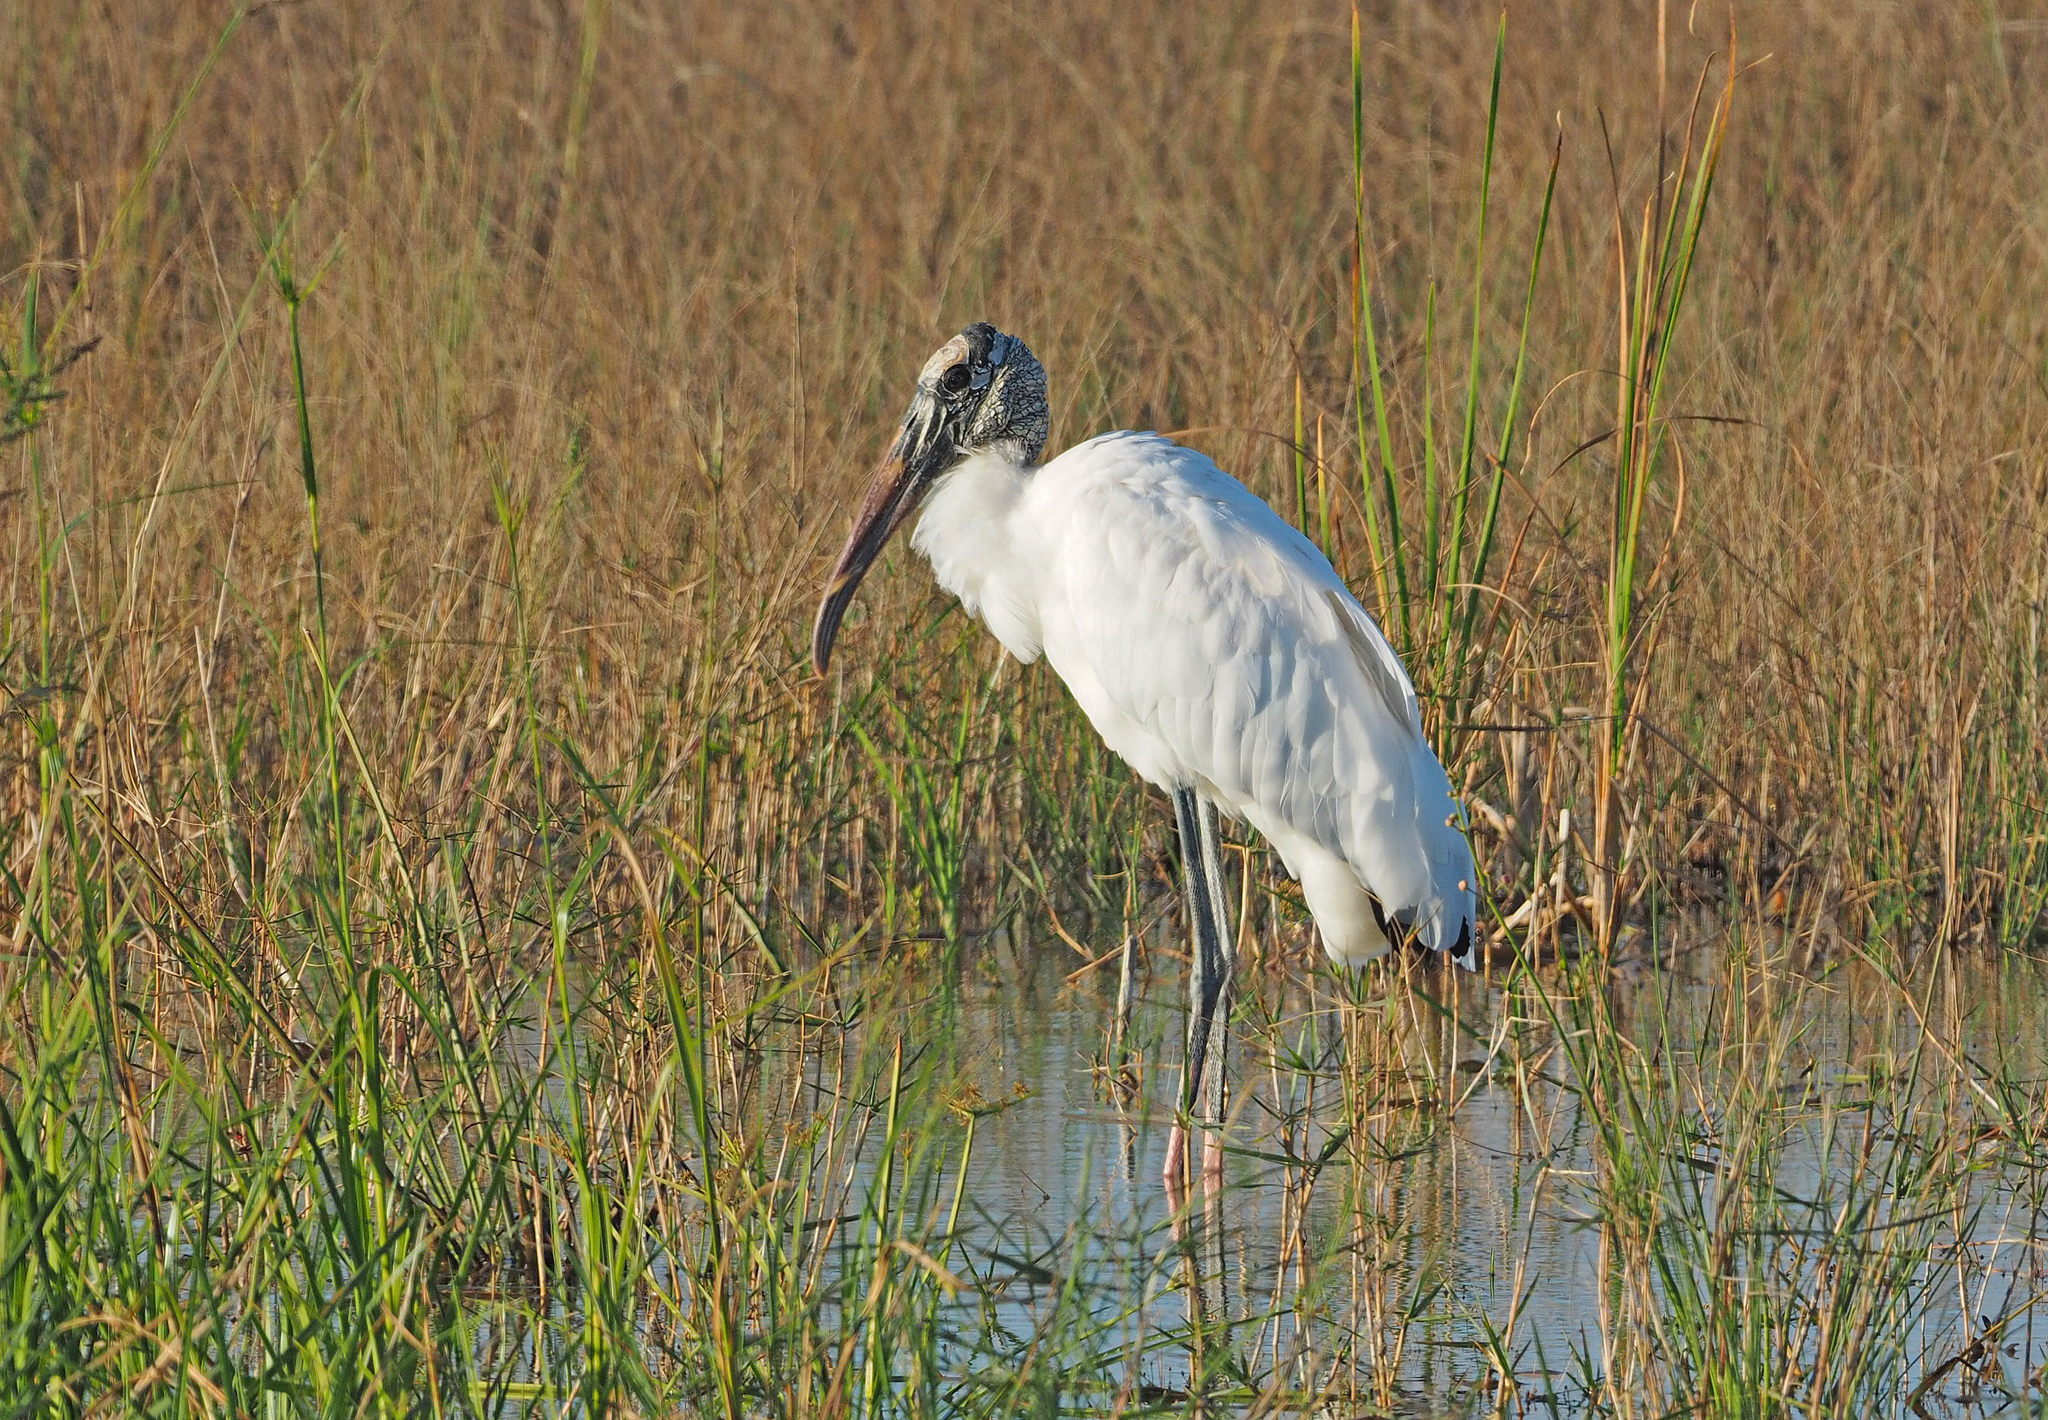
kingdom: Animalia
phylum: Chordata
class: Aves
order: Ciconiiformes
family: Ciconiidae
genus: Mycteria
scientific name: Mycteria americana
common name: Wood stork
